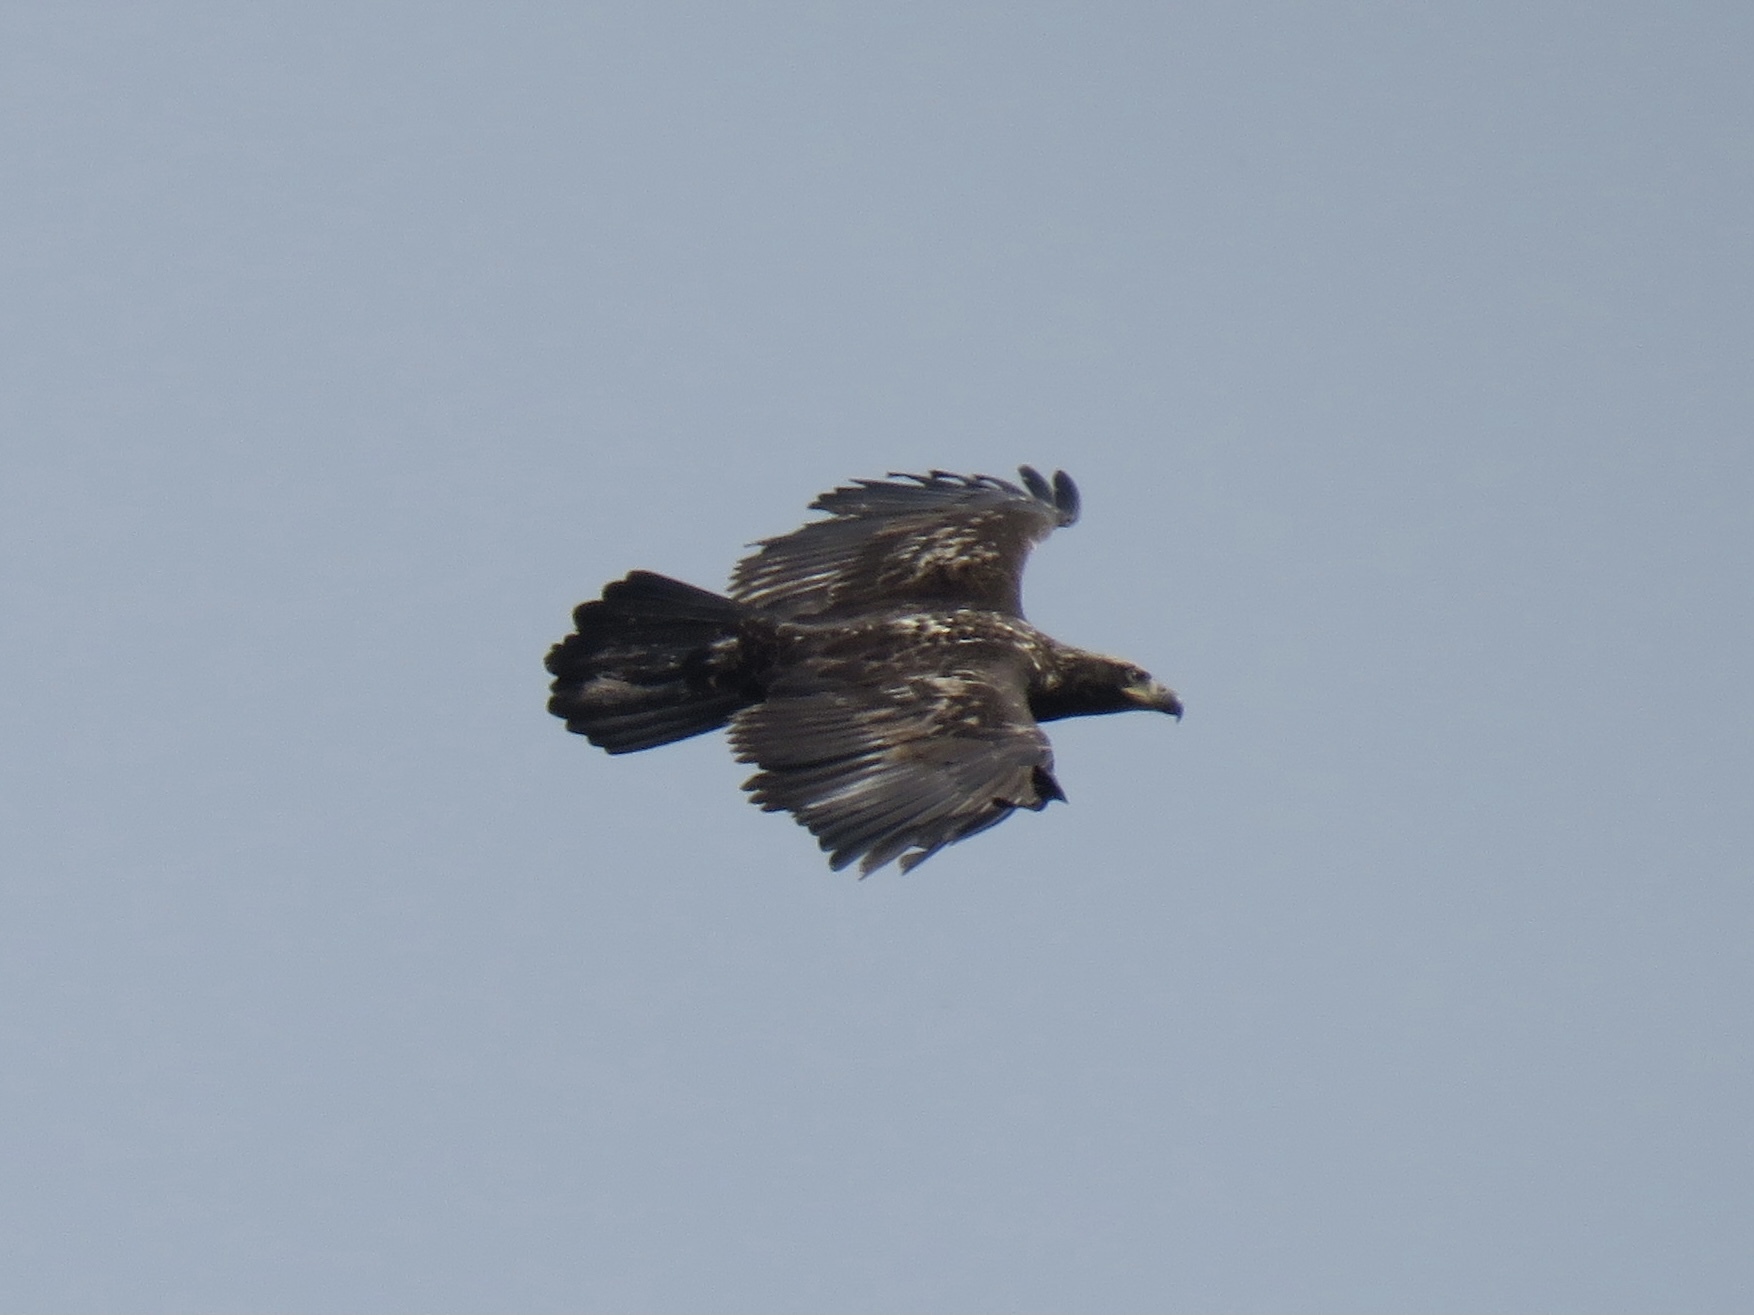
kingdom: Animalia
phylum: Chordata
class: Aves
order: Accipitriformes
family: Accipitridae
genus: Haliaeetus
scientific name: Haliaeetus leucocephalus
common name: Bald eagle
